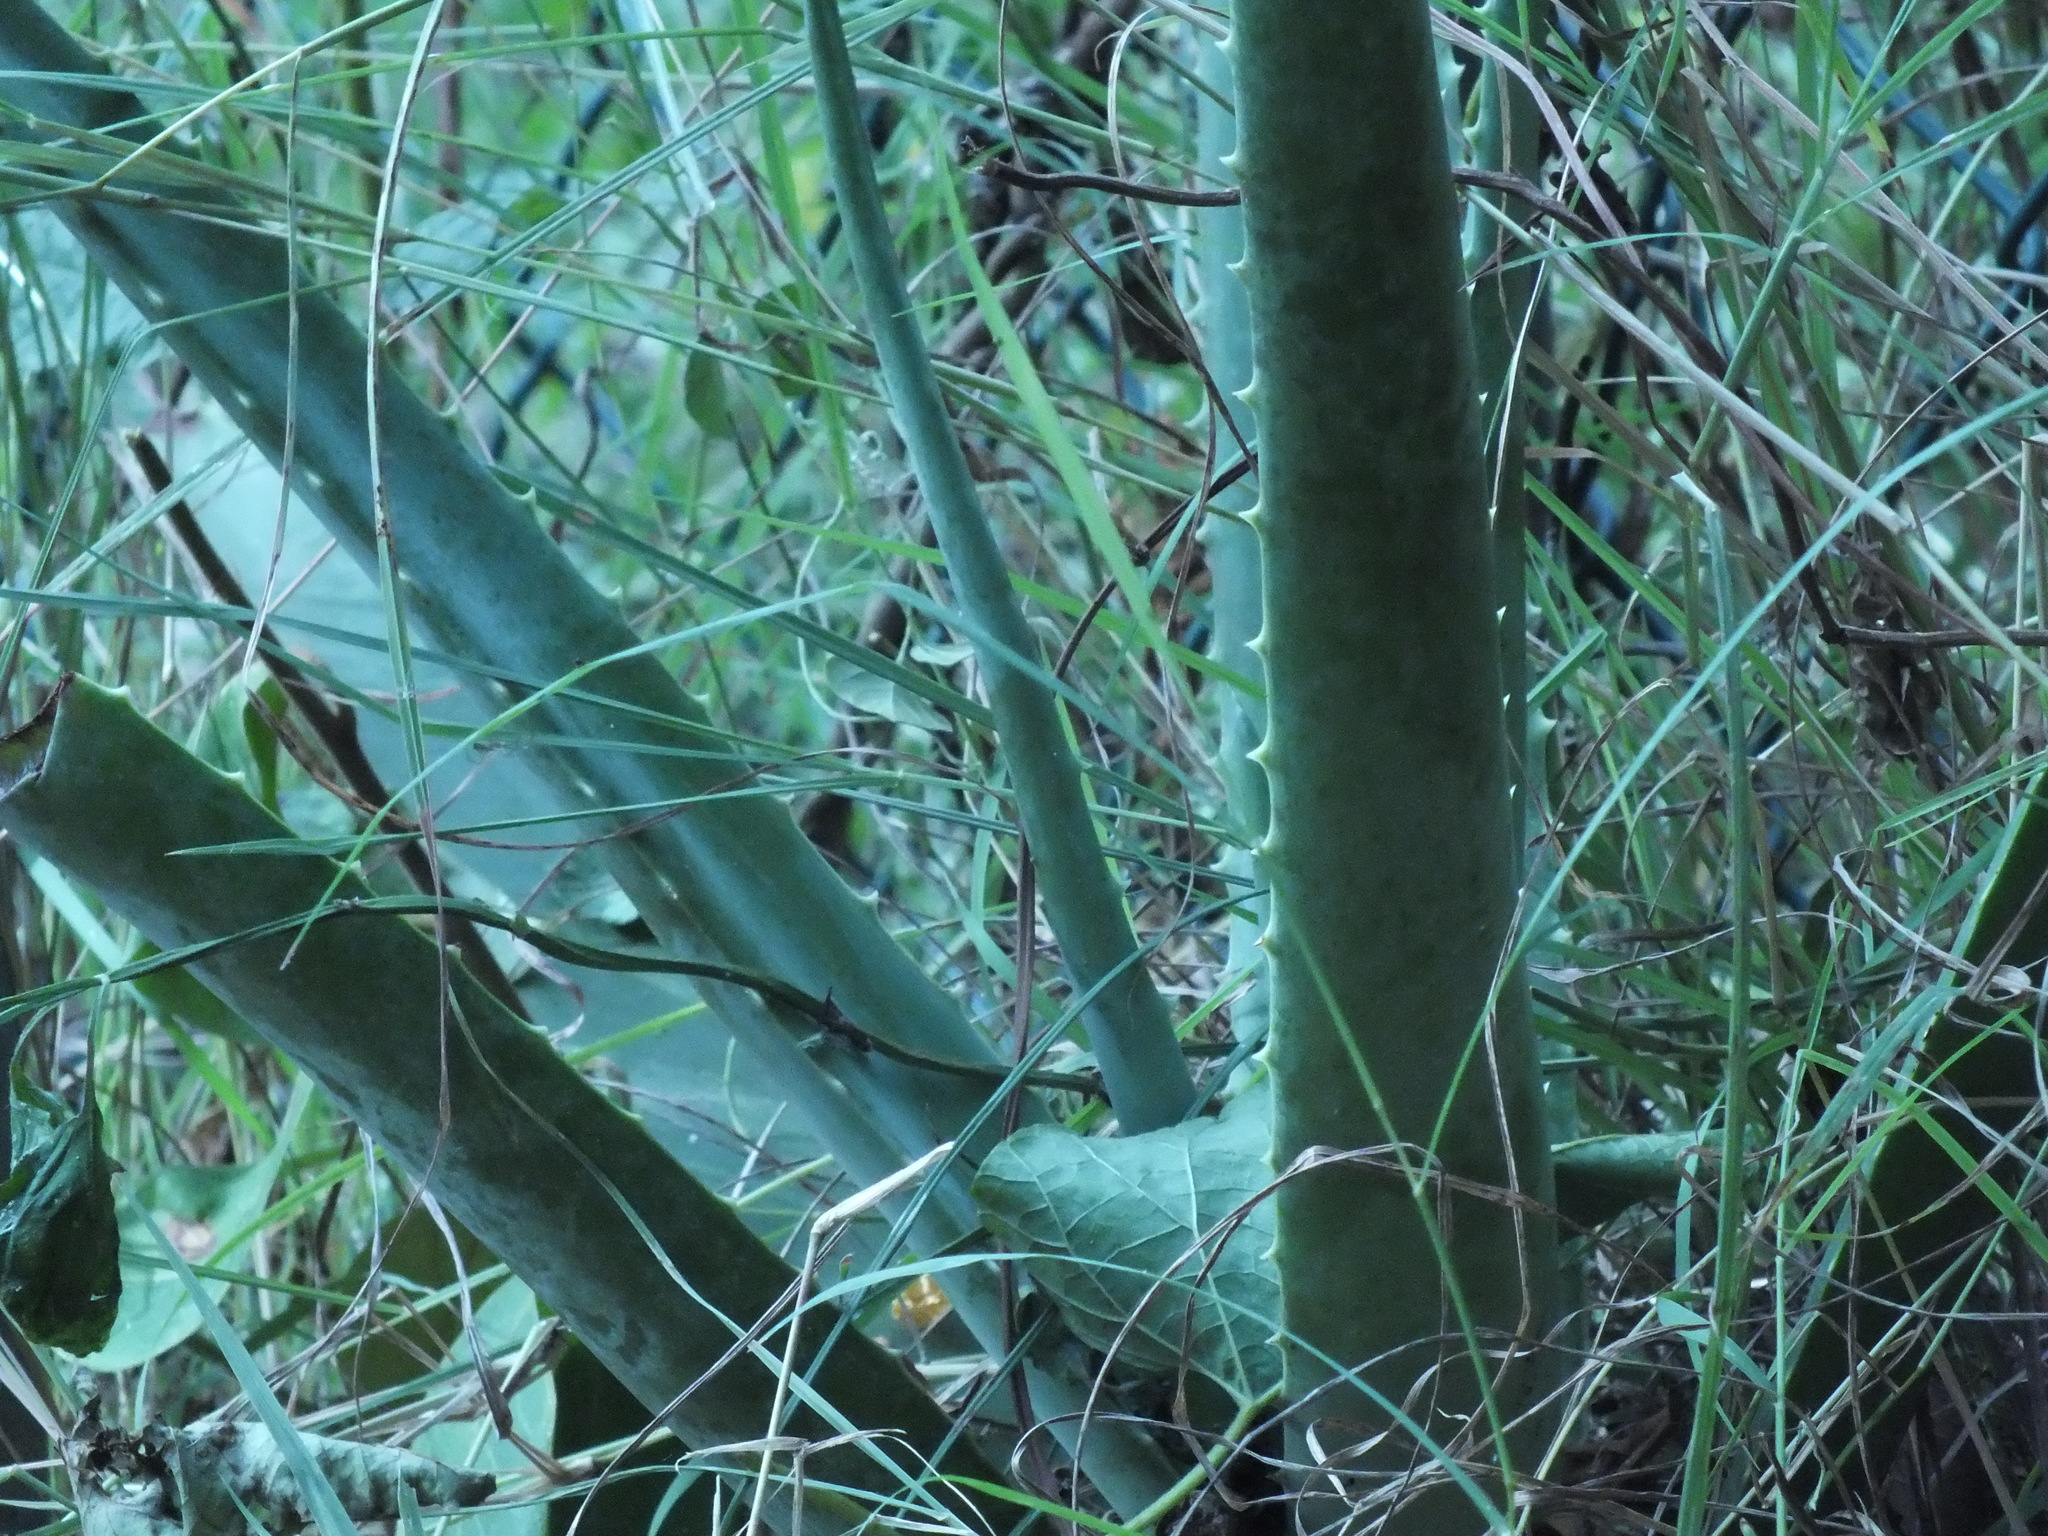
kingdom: Plantae
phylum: Tracheophyta
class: Liliopsida
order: Asparagales
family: Asphodelaceae
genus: Aloe
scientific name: Aloe vera
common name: Barbados aloe
